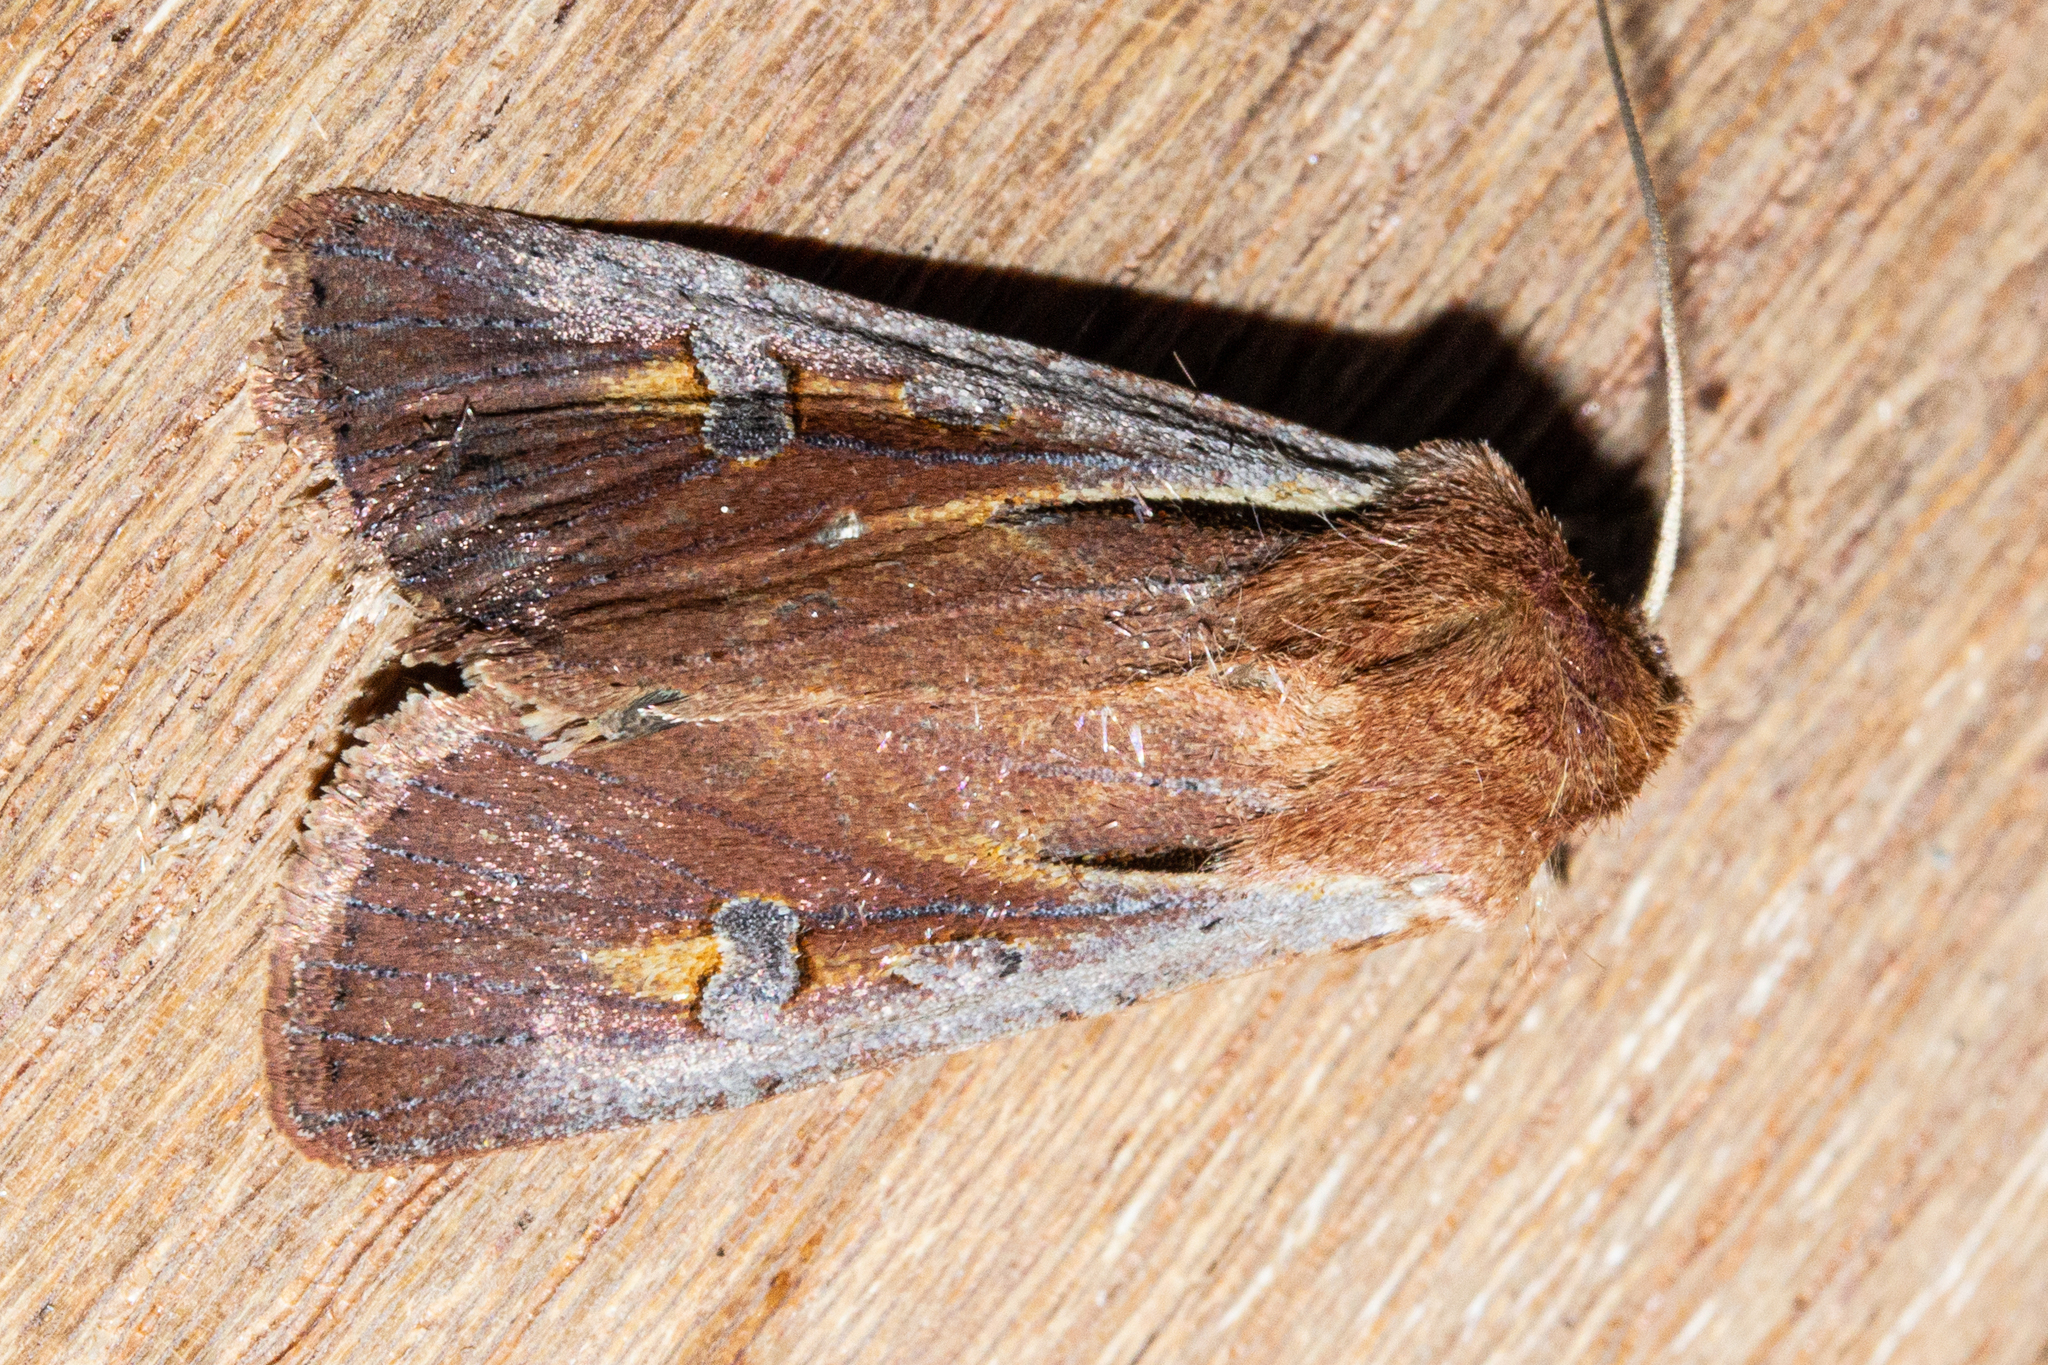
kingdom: Animalia
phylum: Arthropoda
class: Insecta
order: Lepidoptera
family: Noctuidae
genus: Ichneutica
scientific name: Ichneutica atristriga
